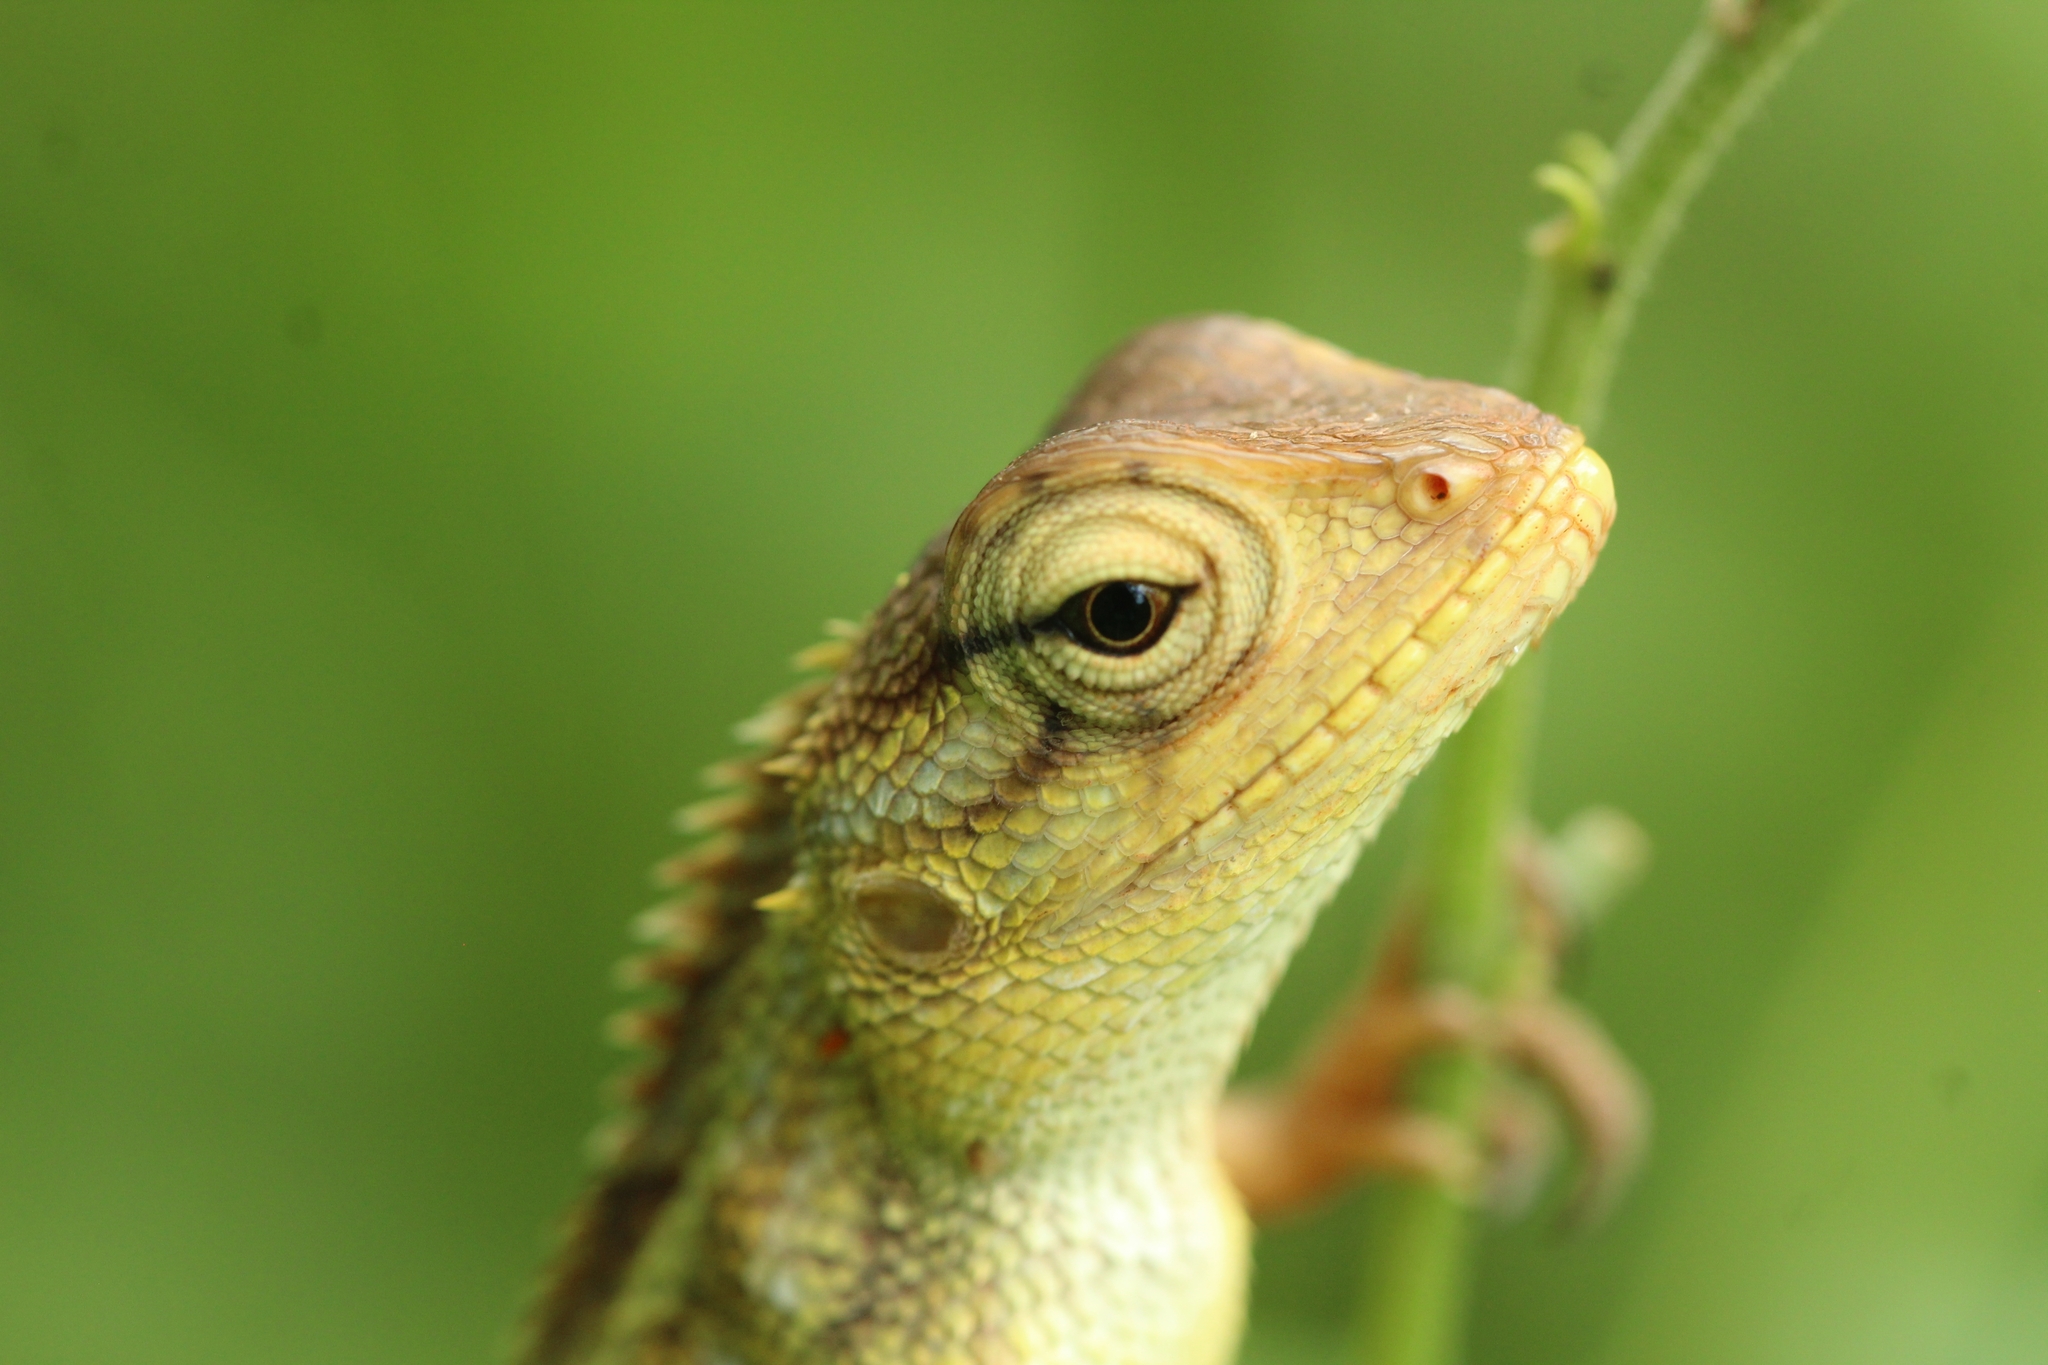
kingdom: Animalia
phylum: Chordata
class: Squamata
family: Agamidae
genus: Calotes
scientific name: Calotes versicolor
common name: Oriental garden lizard
